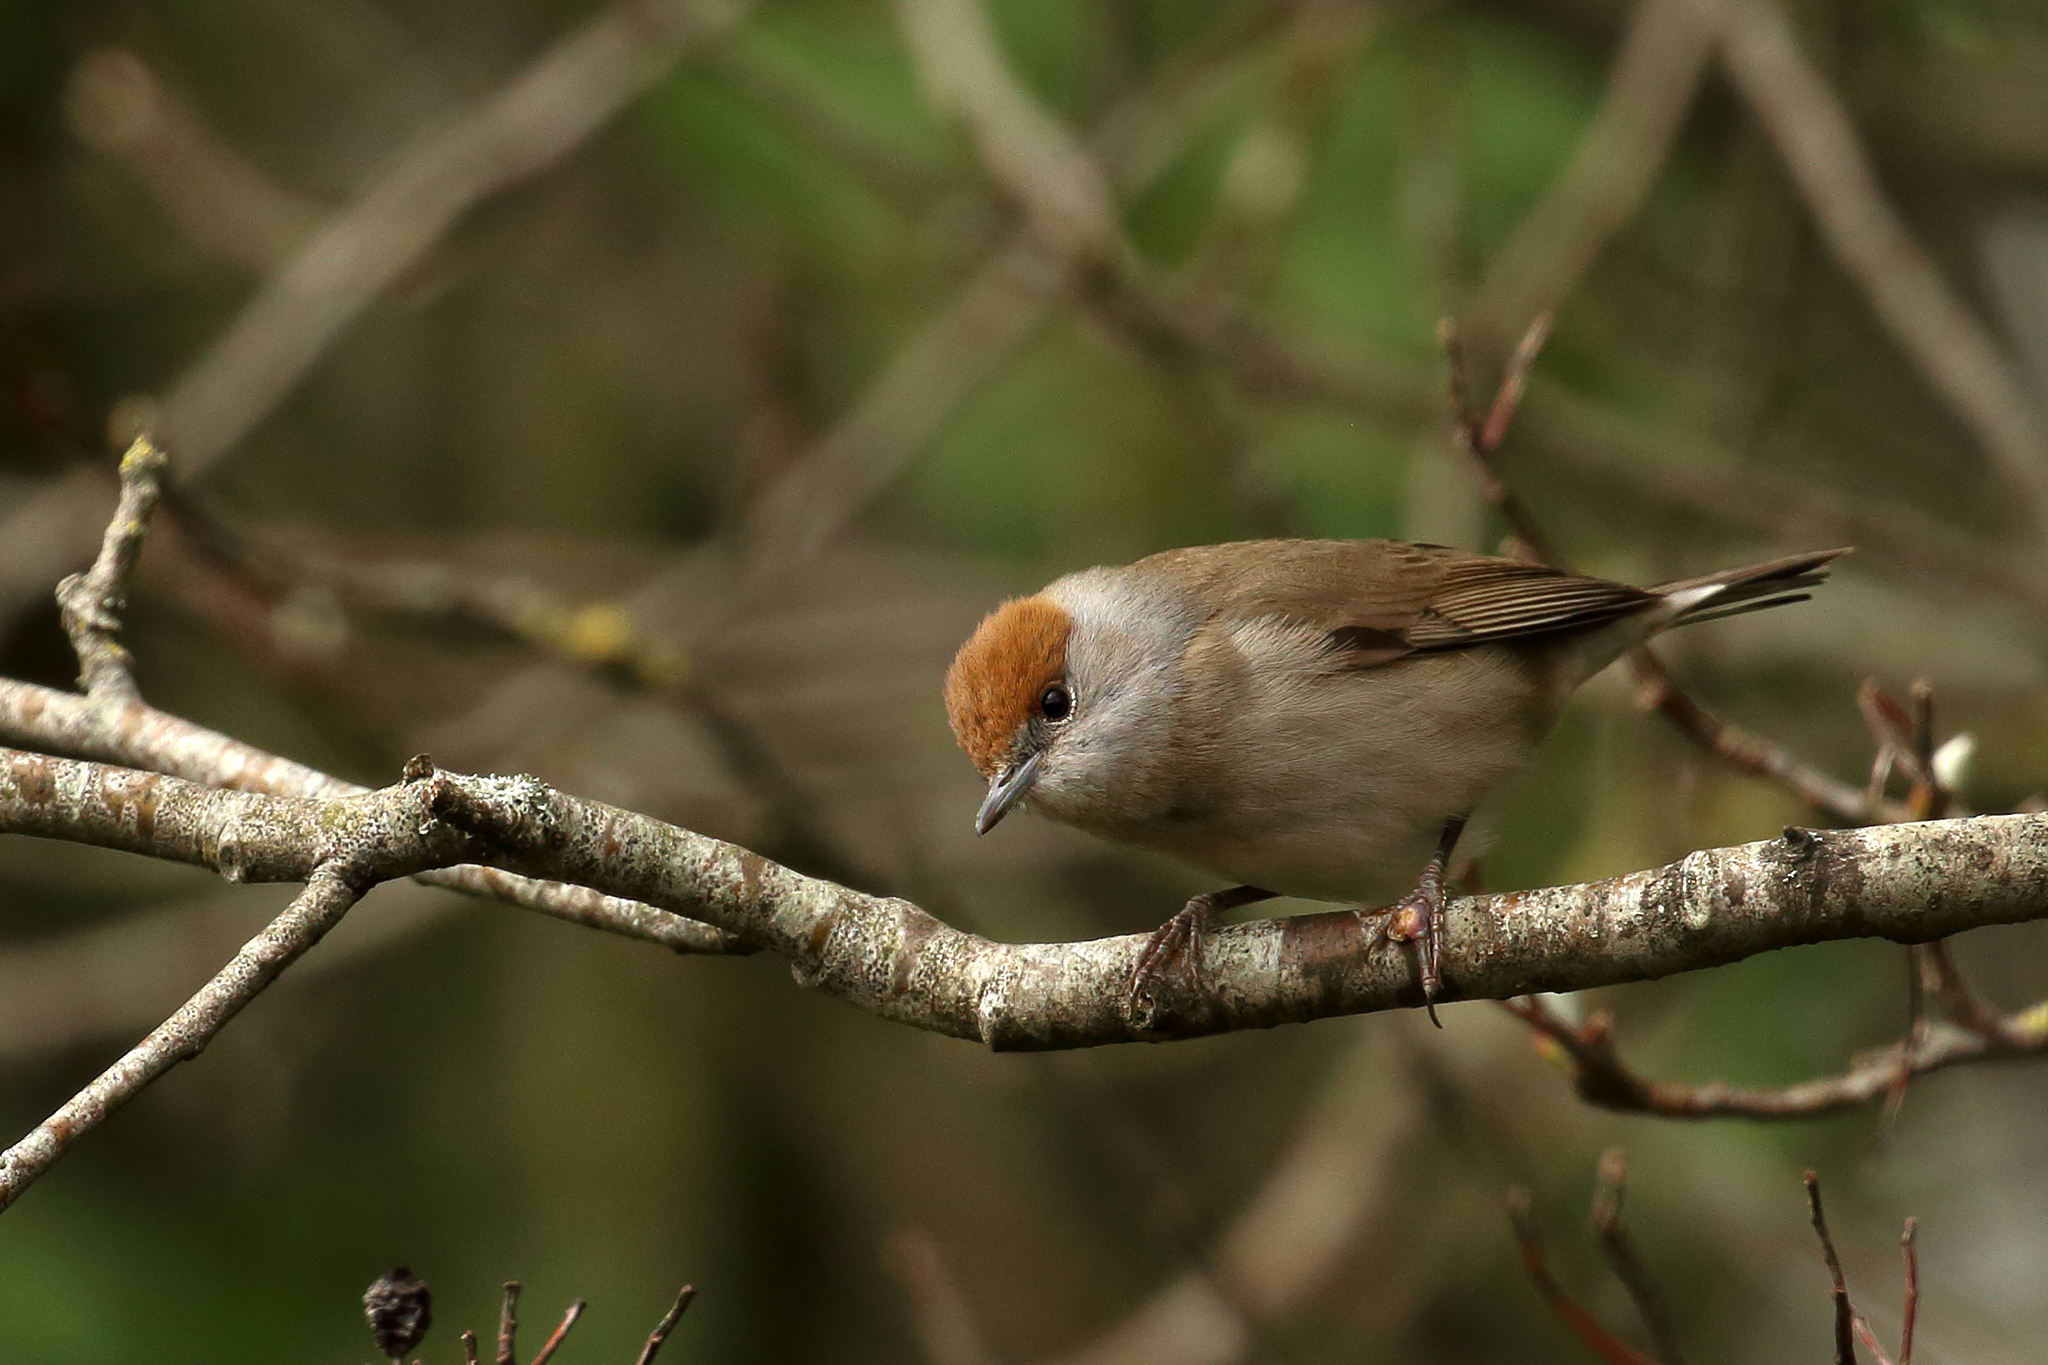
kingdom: Animalia
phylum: Chordata
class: Aves
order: Passeriformes
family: Sylviidae
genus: Sylvia
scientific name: Sylvia atricapilla
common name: Eurasian blackcap
